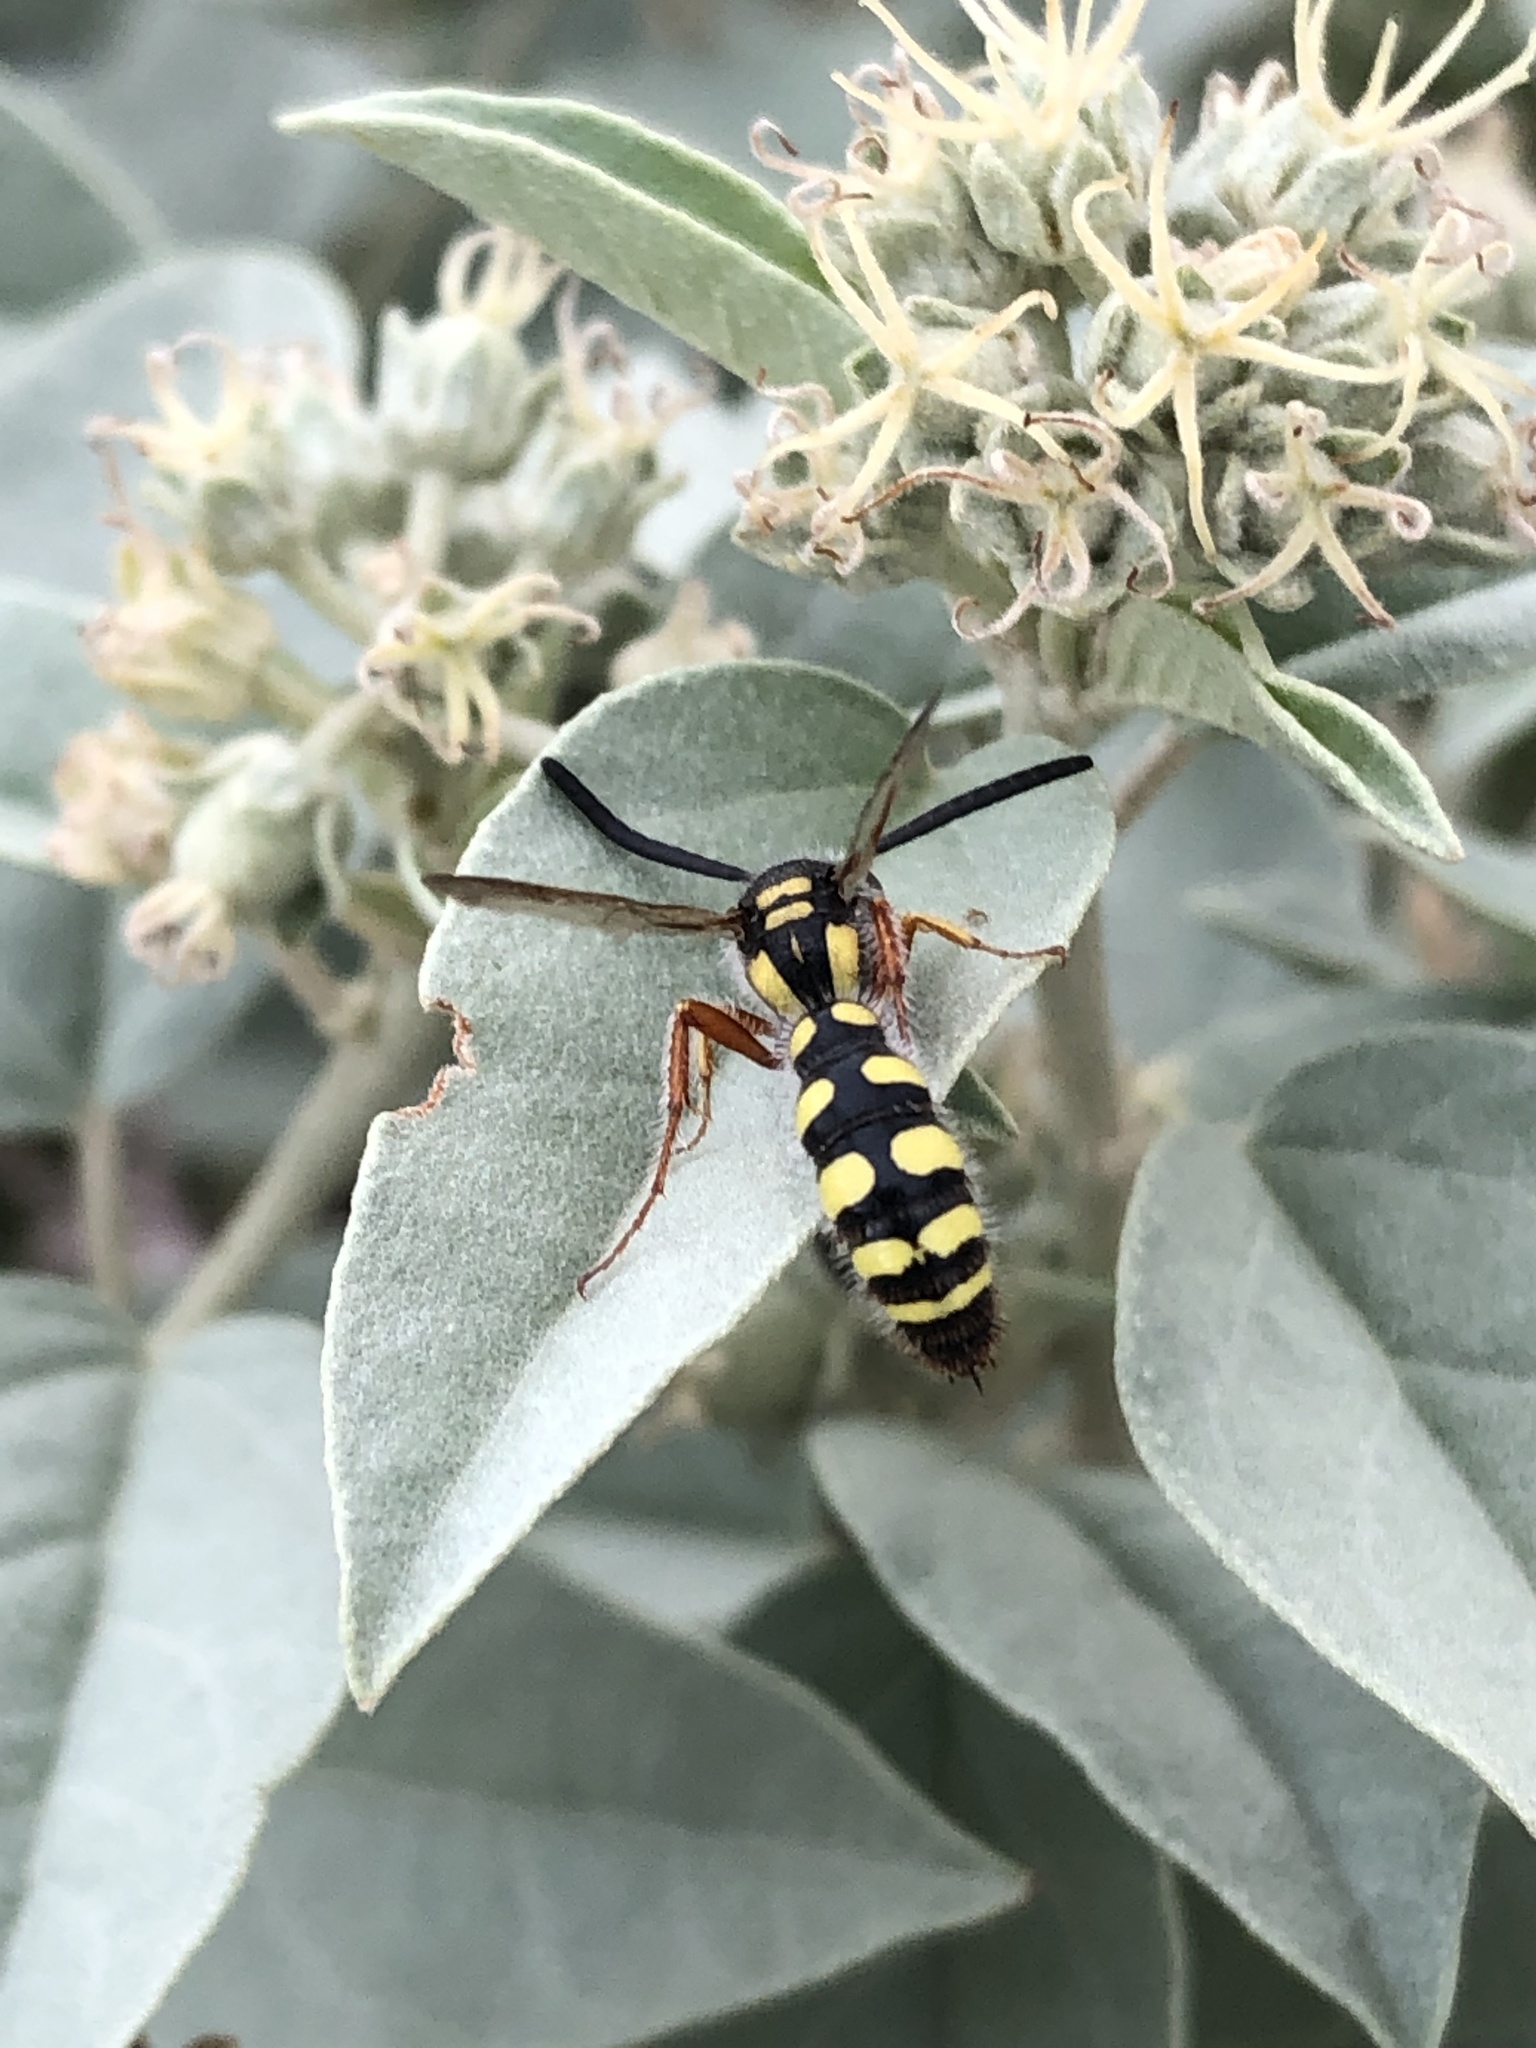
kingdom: Animalia
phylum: Arthropoda
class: Insecta
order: Hymenoptera
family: Scoliidae
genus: Colpa
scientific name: Colpa octomaculata
